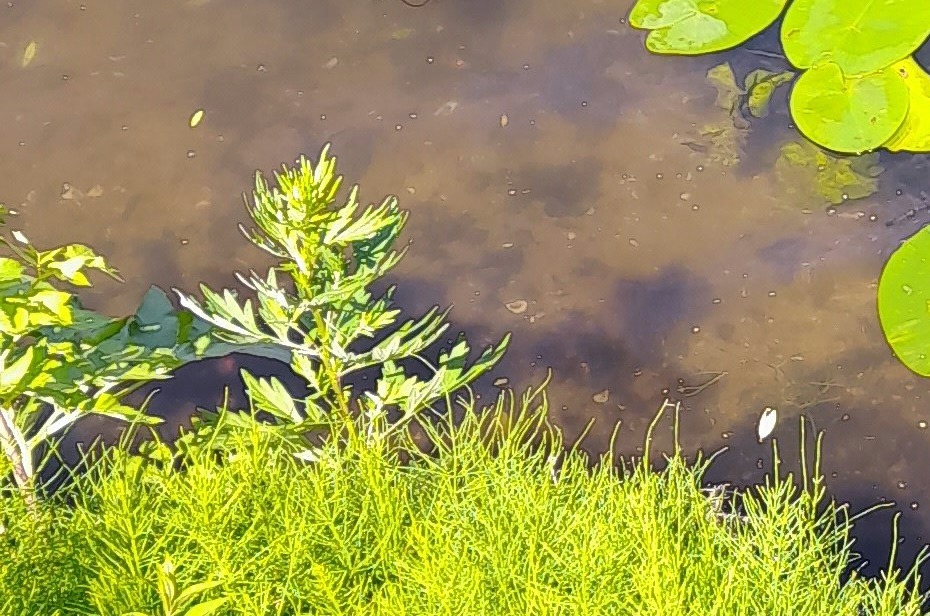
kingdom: Plantae
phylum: Tracheophyta
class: Magnoliopsida
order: Asterales
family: Asteraceae
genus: Artemisia
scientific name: Artemisia vulgaris
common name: Mugwort
